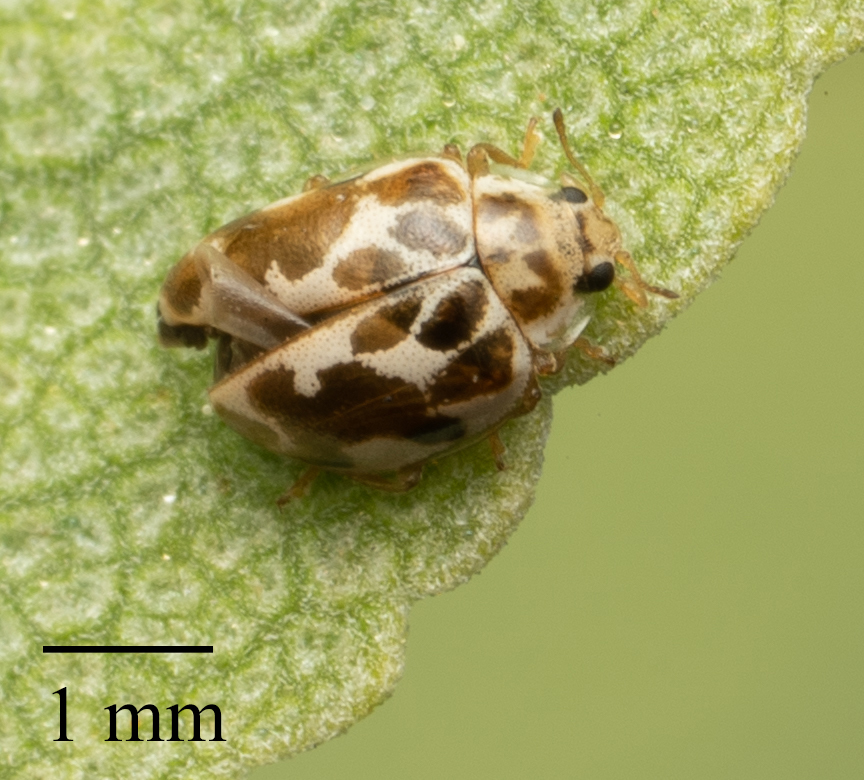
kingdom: Animalia
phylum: Arthropoda
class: Insecta
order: Coleoptera
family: Coccinellidae
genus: Psyllobora
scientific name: Psyllobora vigintimaculata
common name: Ladybird beetle
